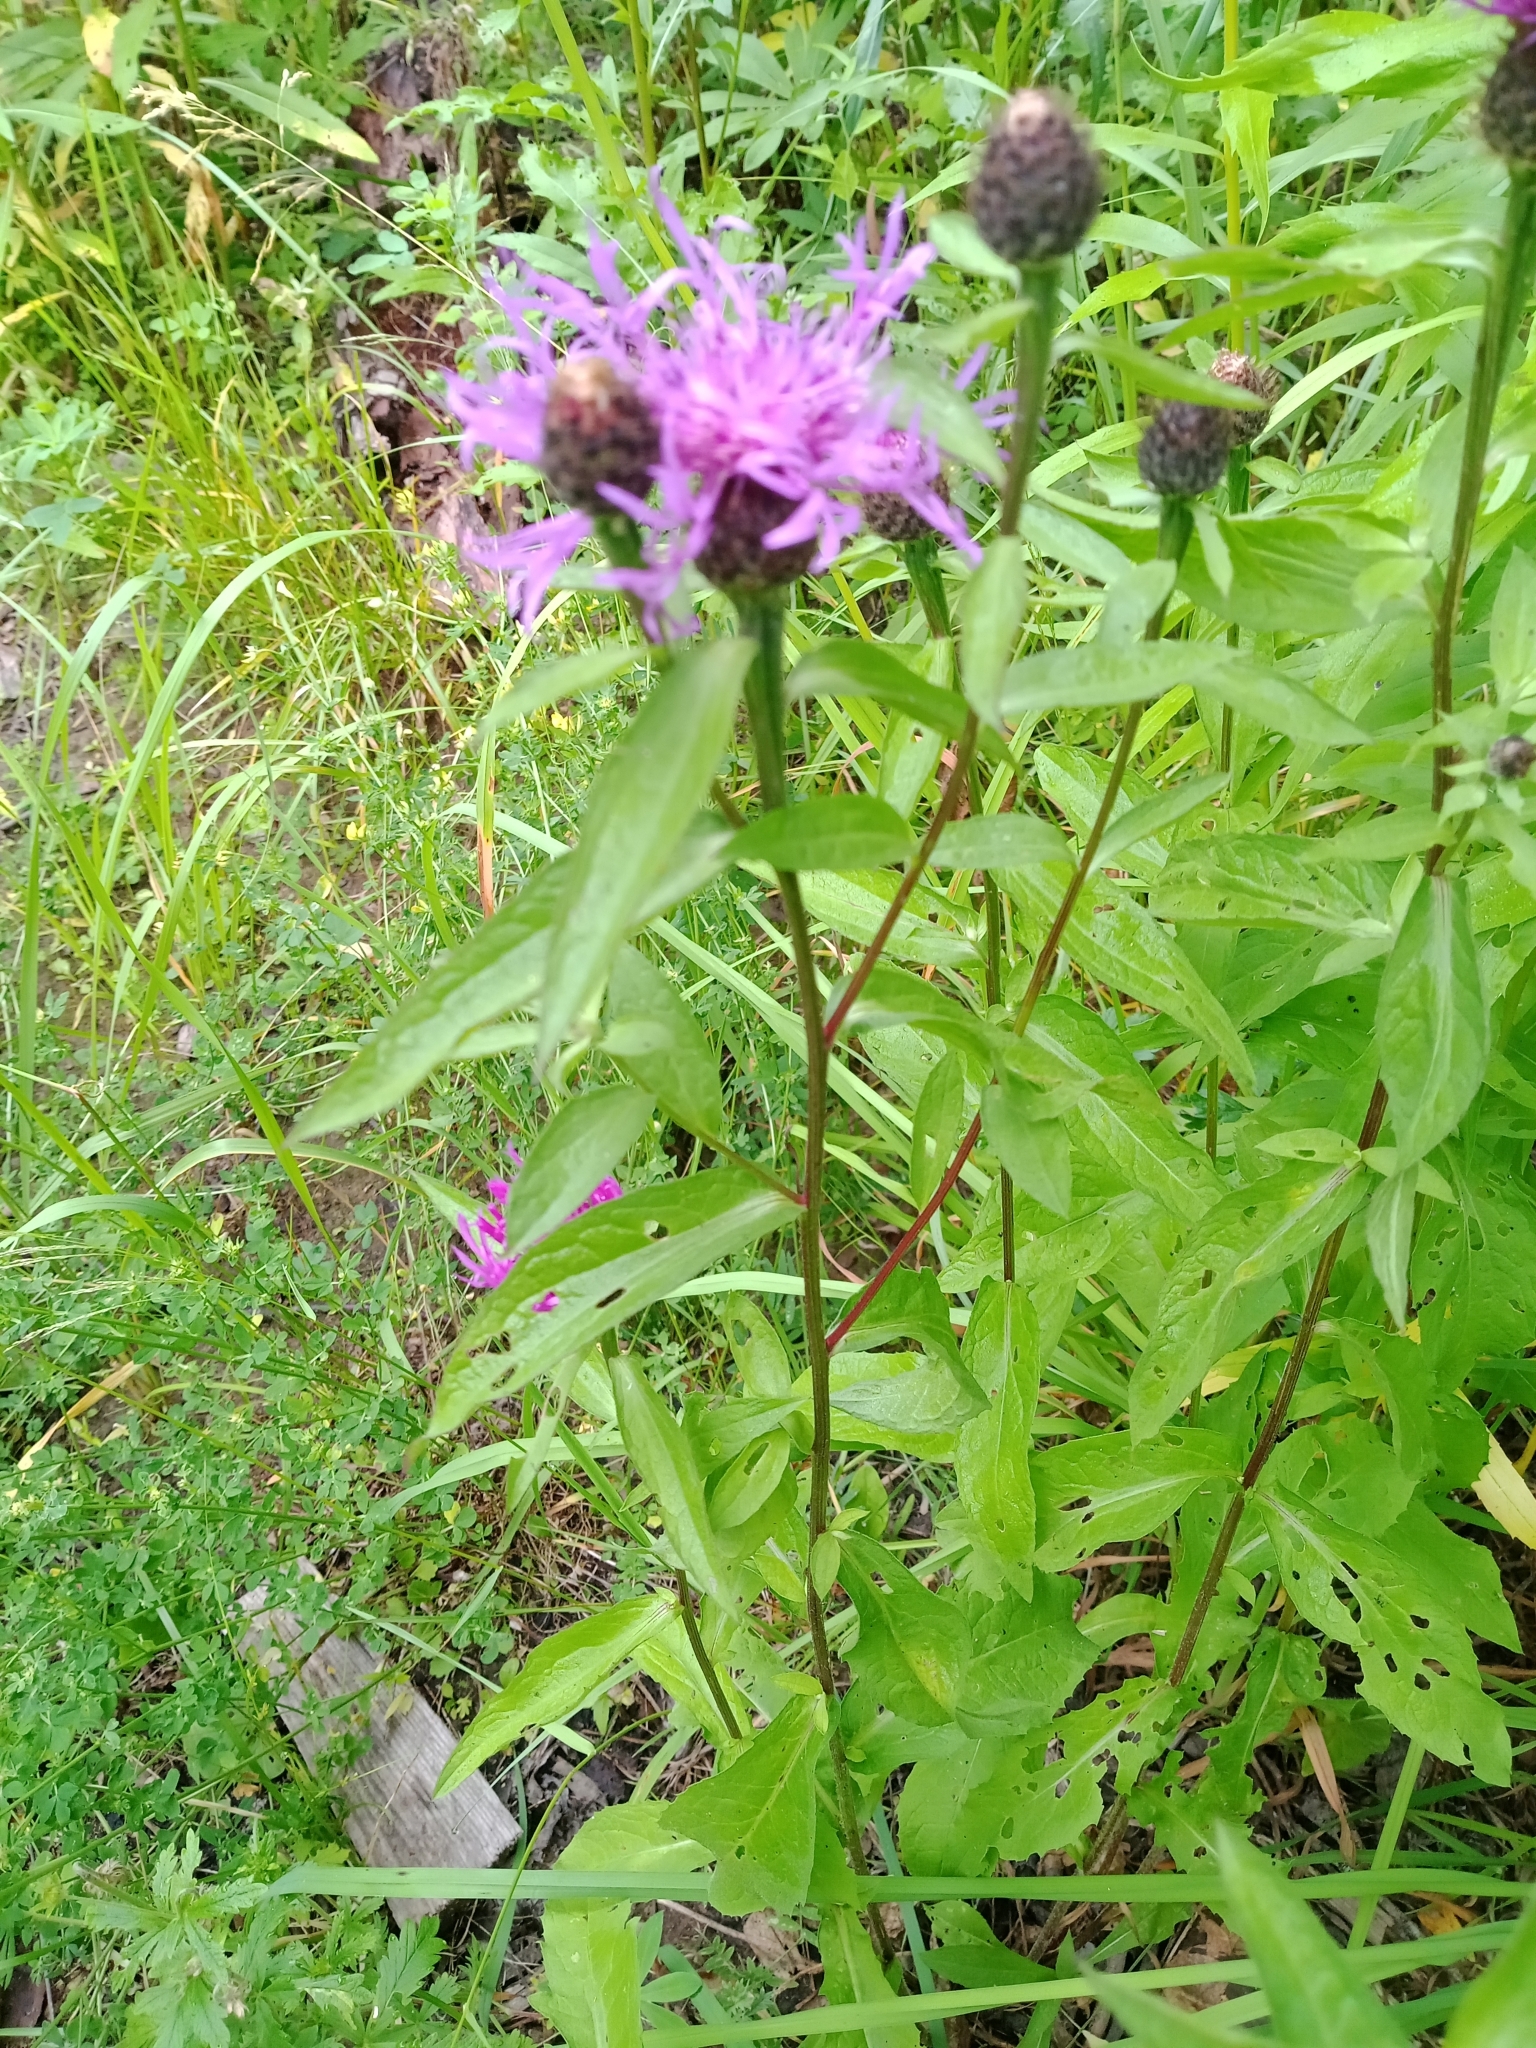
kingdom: Plantae
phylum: Tracheophyta
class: Magnoliopsida
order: Asterales
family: Asteraceae
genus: Centaurea
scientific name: Centaurea phrygia
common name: Wig knapweed
